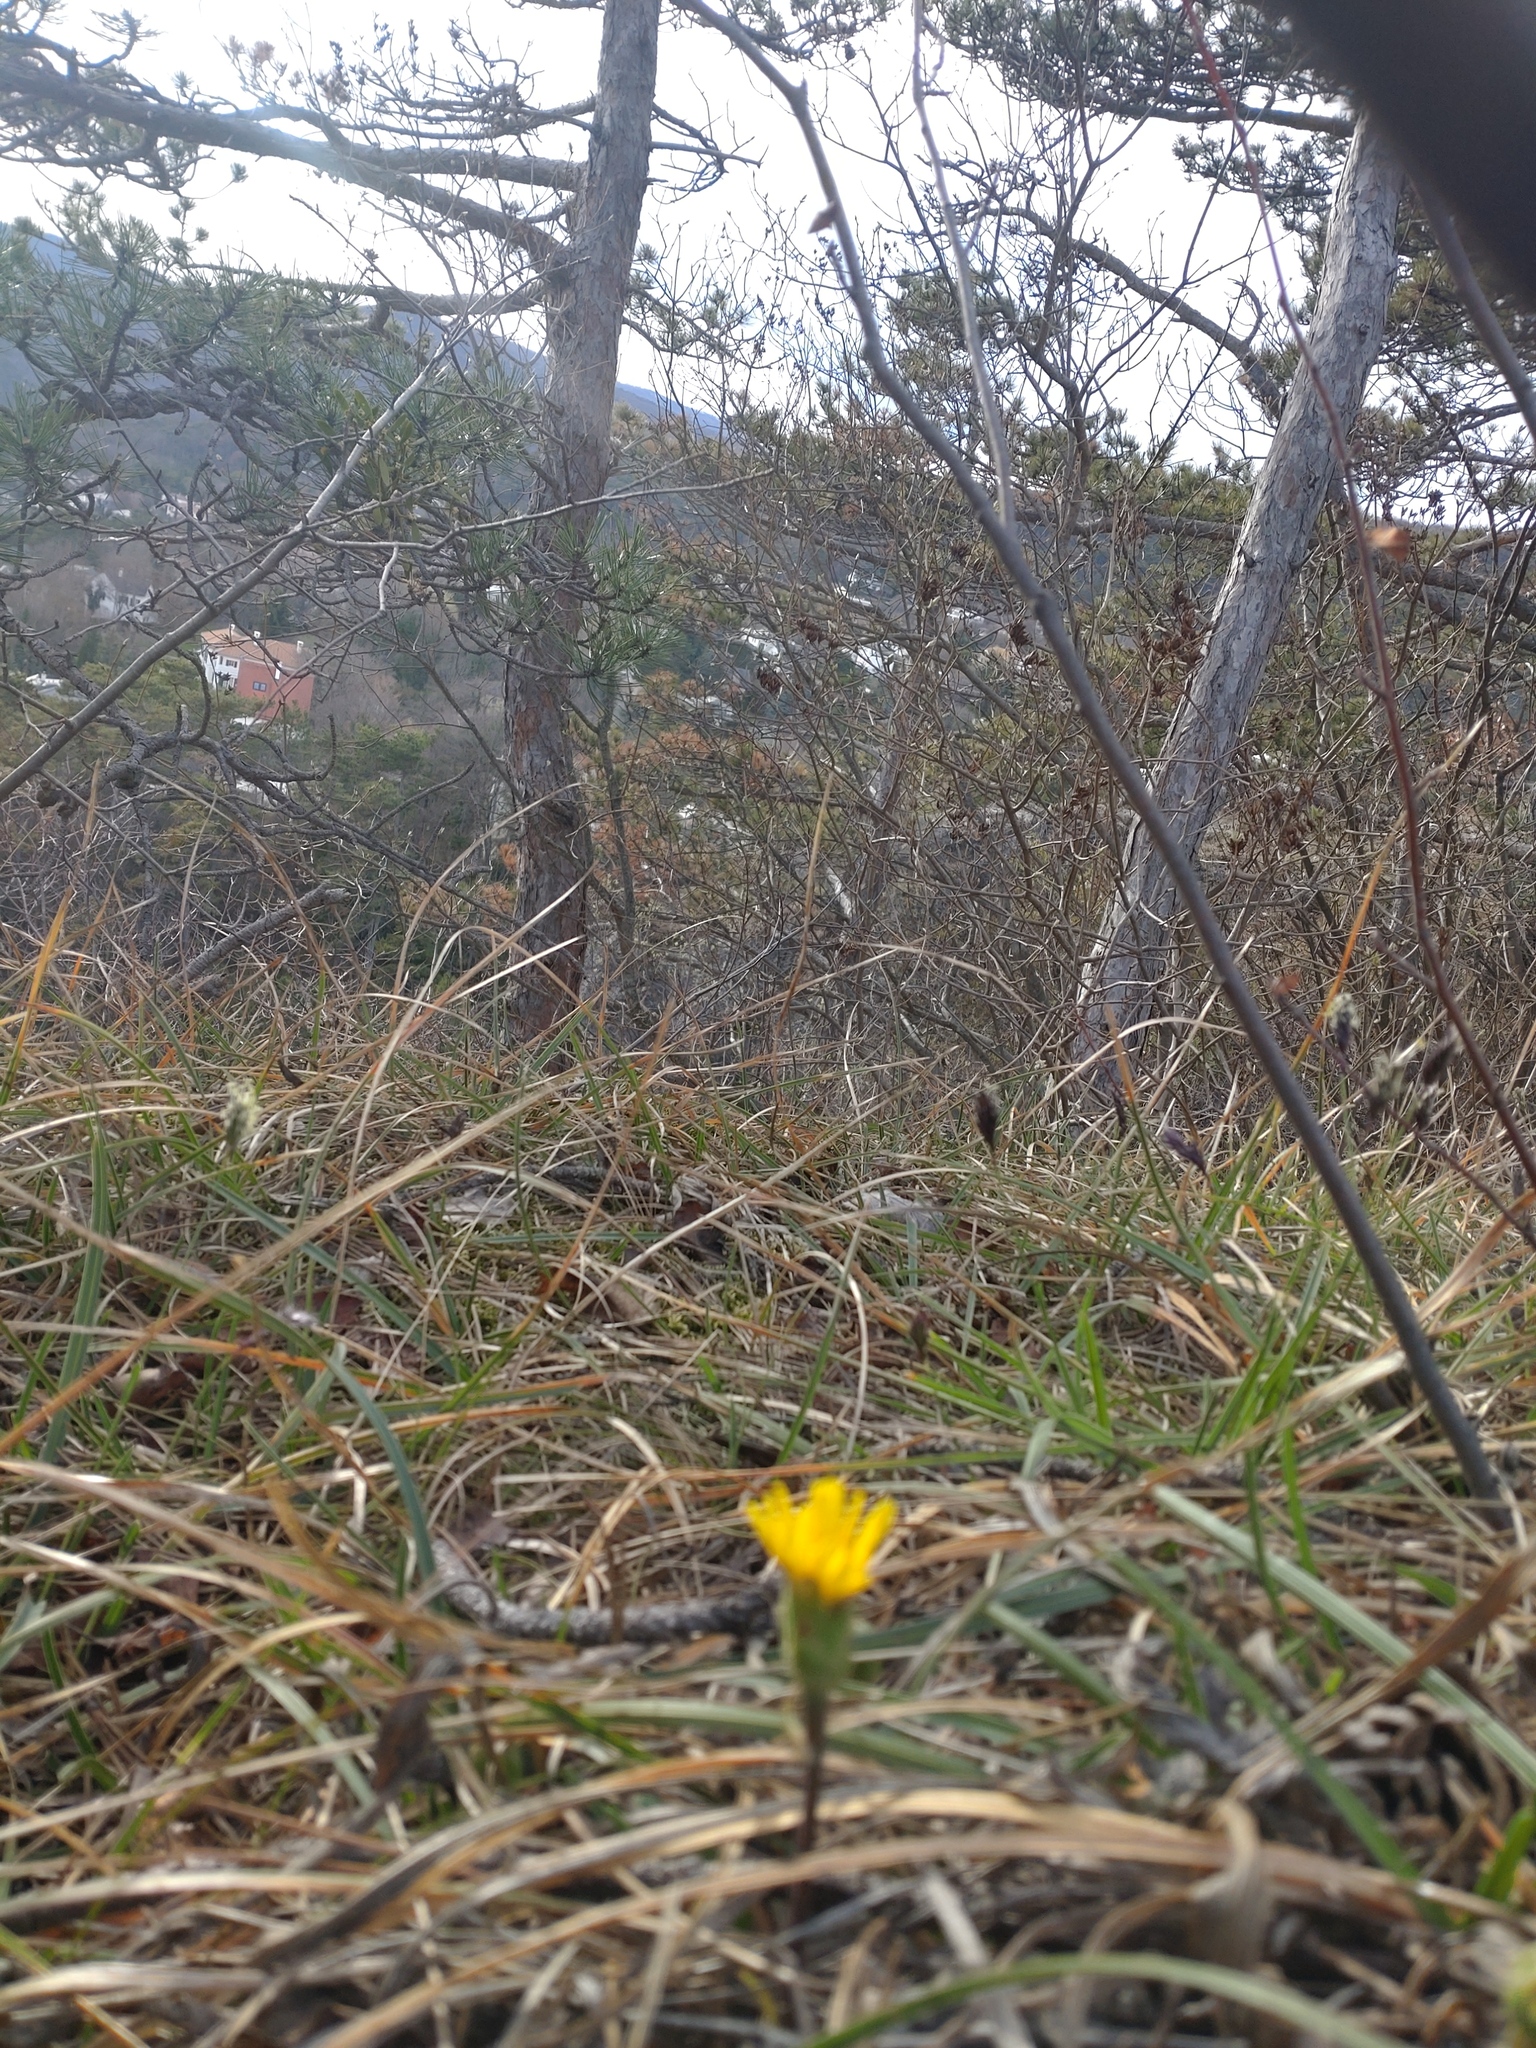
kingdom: Plantae
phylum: Tracheophyta
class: Magnoliopsida
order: Asterales
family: Asteraceae
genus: Takhtajaniantha
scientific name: Takhtajaniantha austriaca
